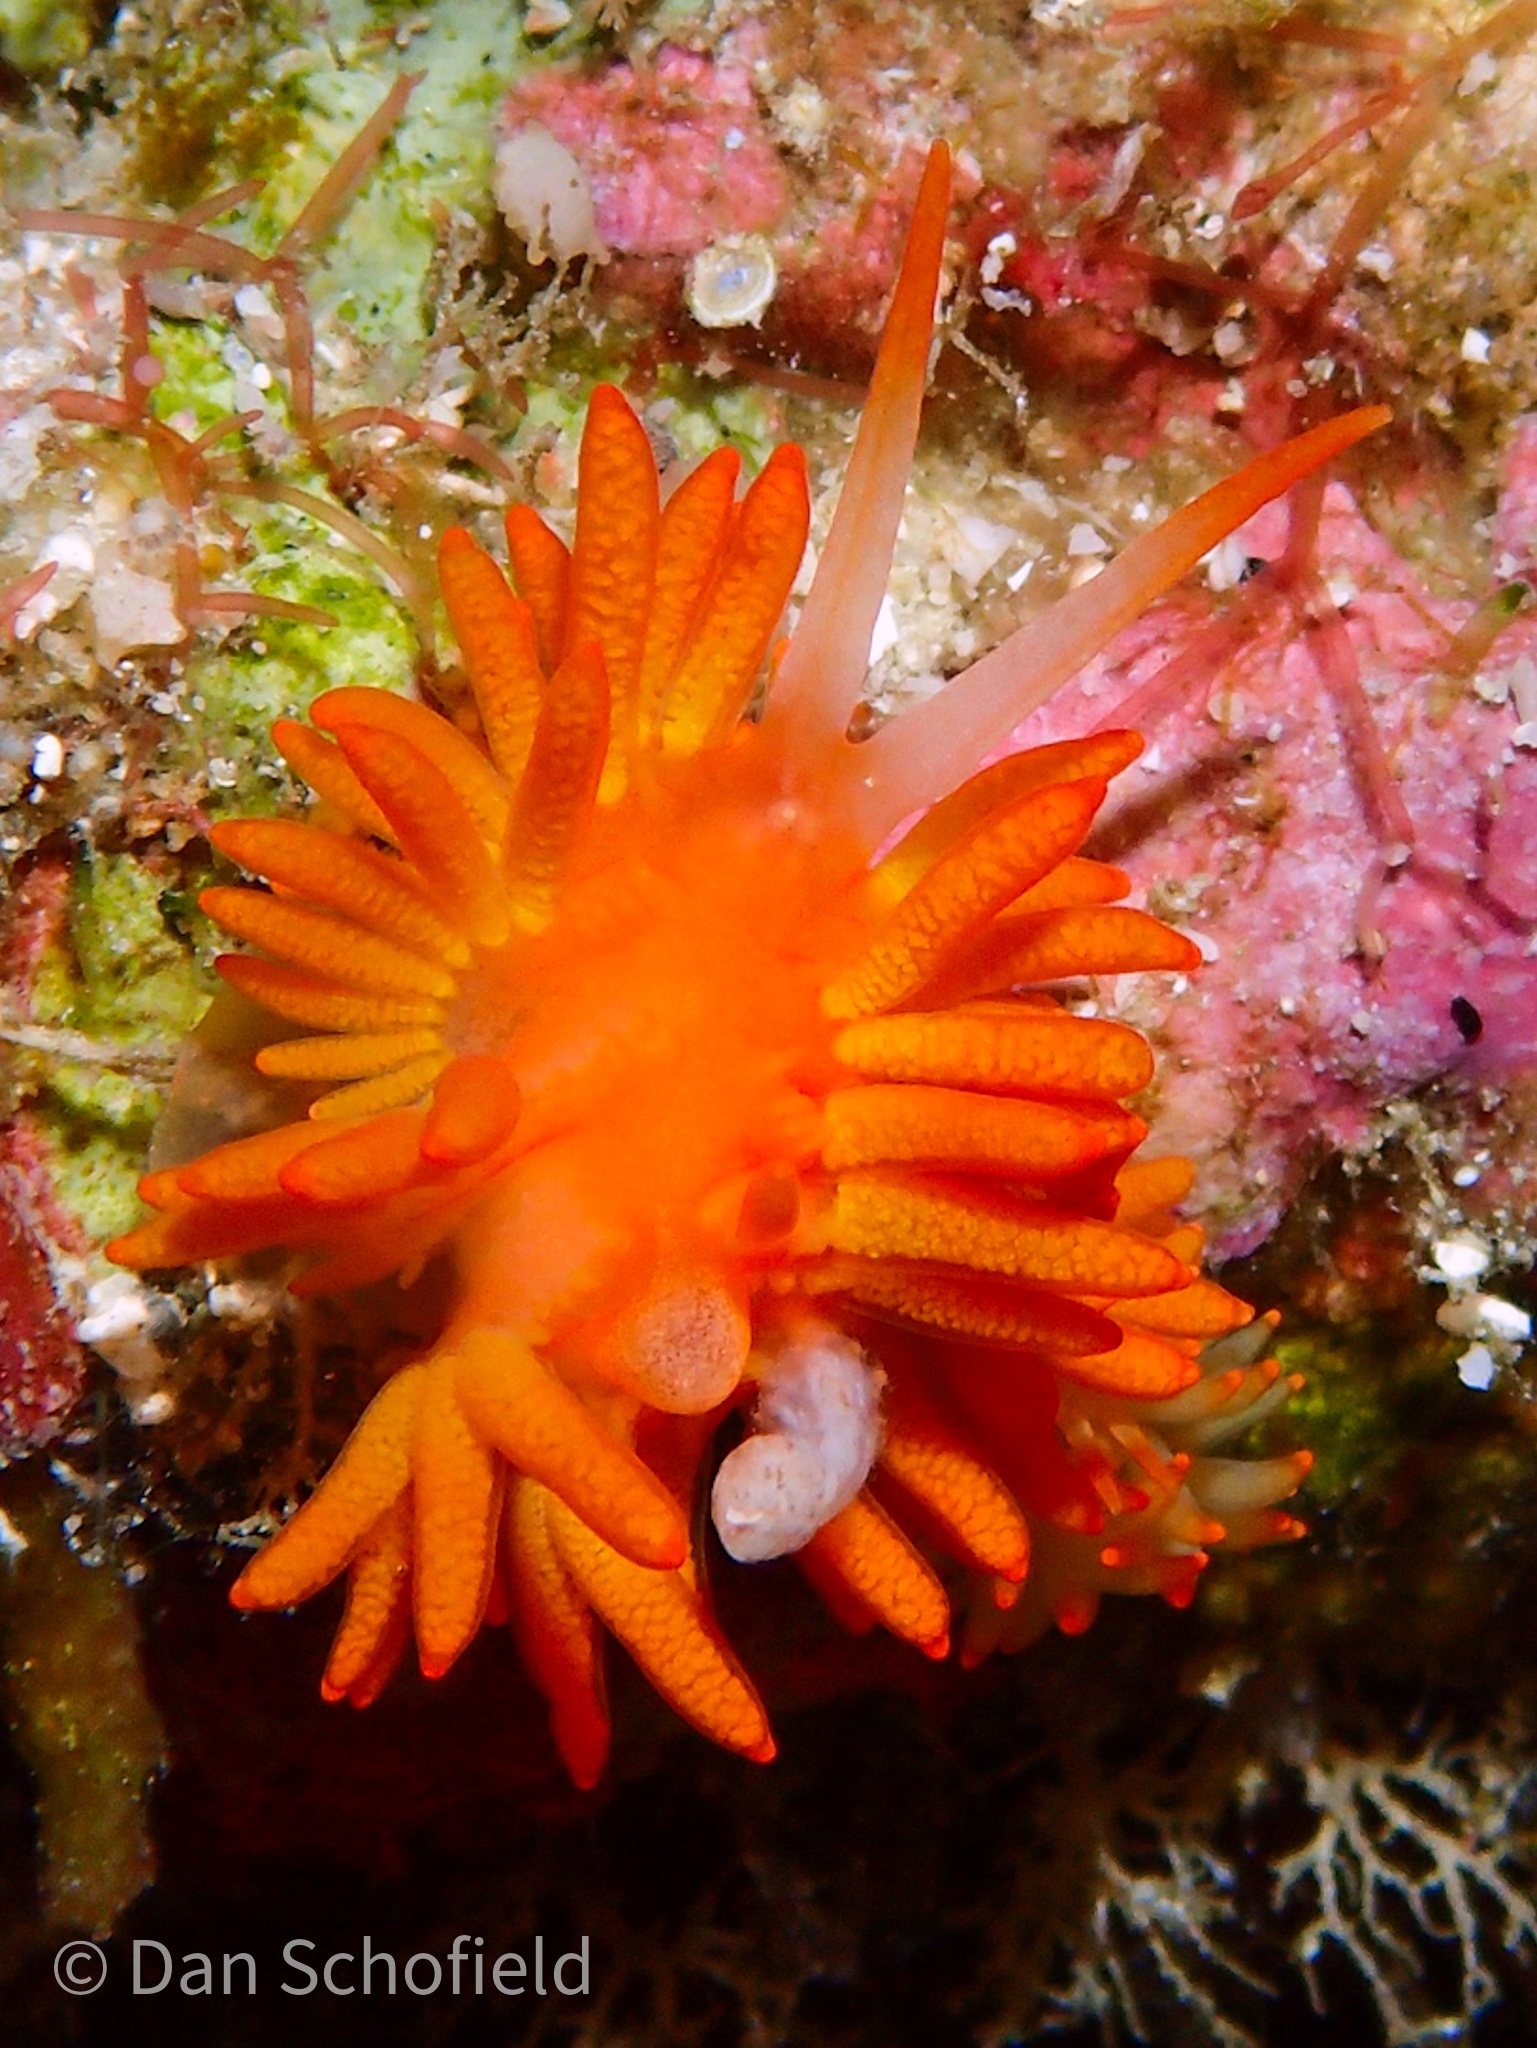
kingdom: Animalia
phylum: Mollusca
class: Gastropoda
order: Nudibranchia
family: Trinchesiidae
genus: Phestilla
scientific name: Phestilla melanobrachia
